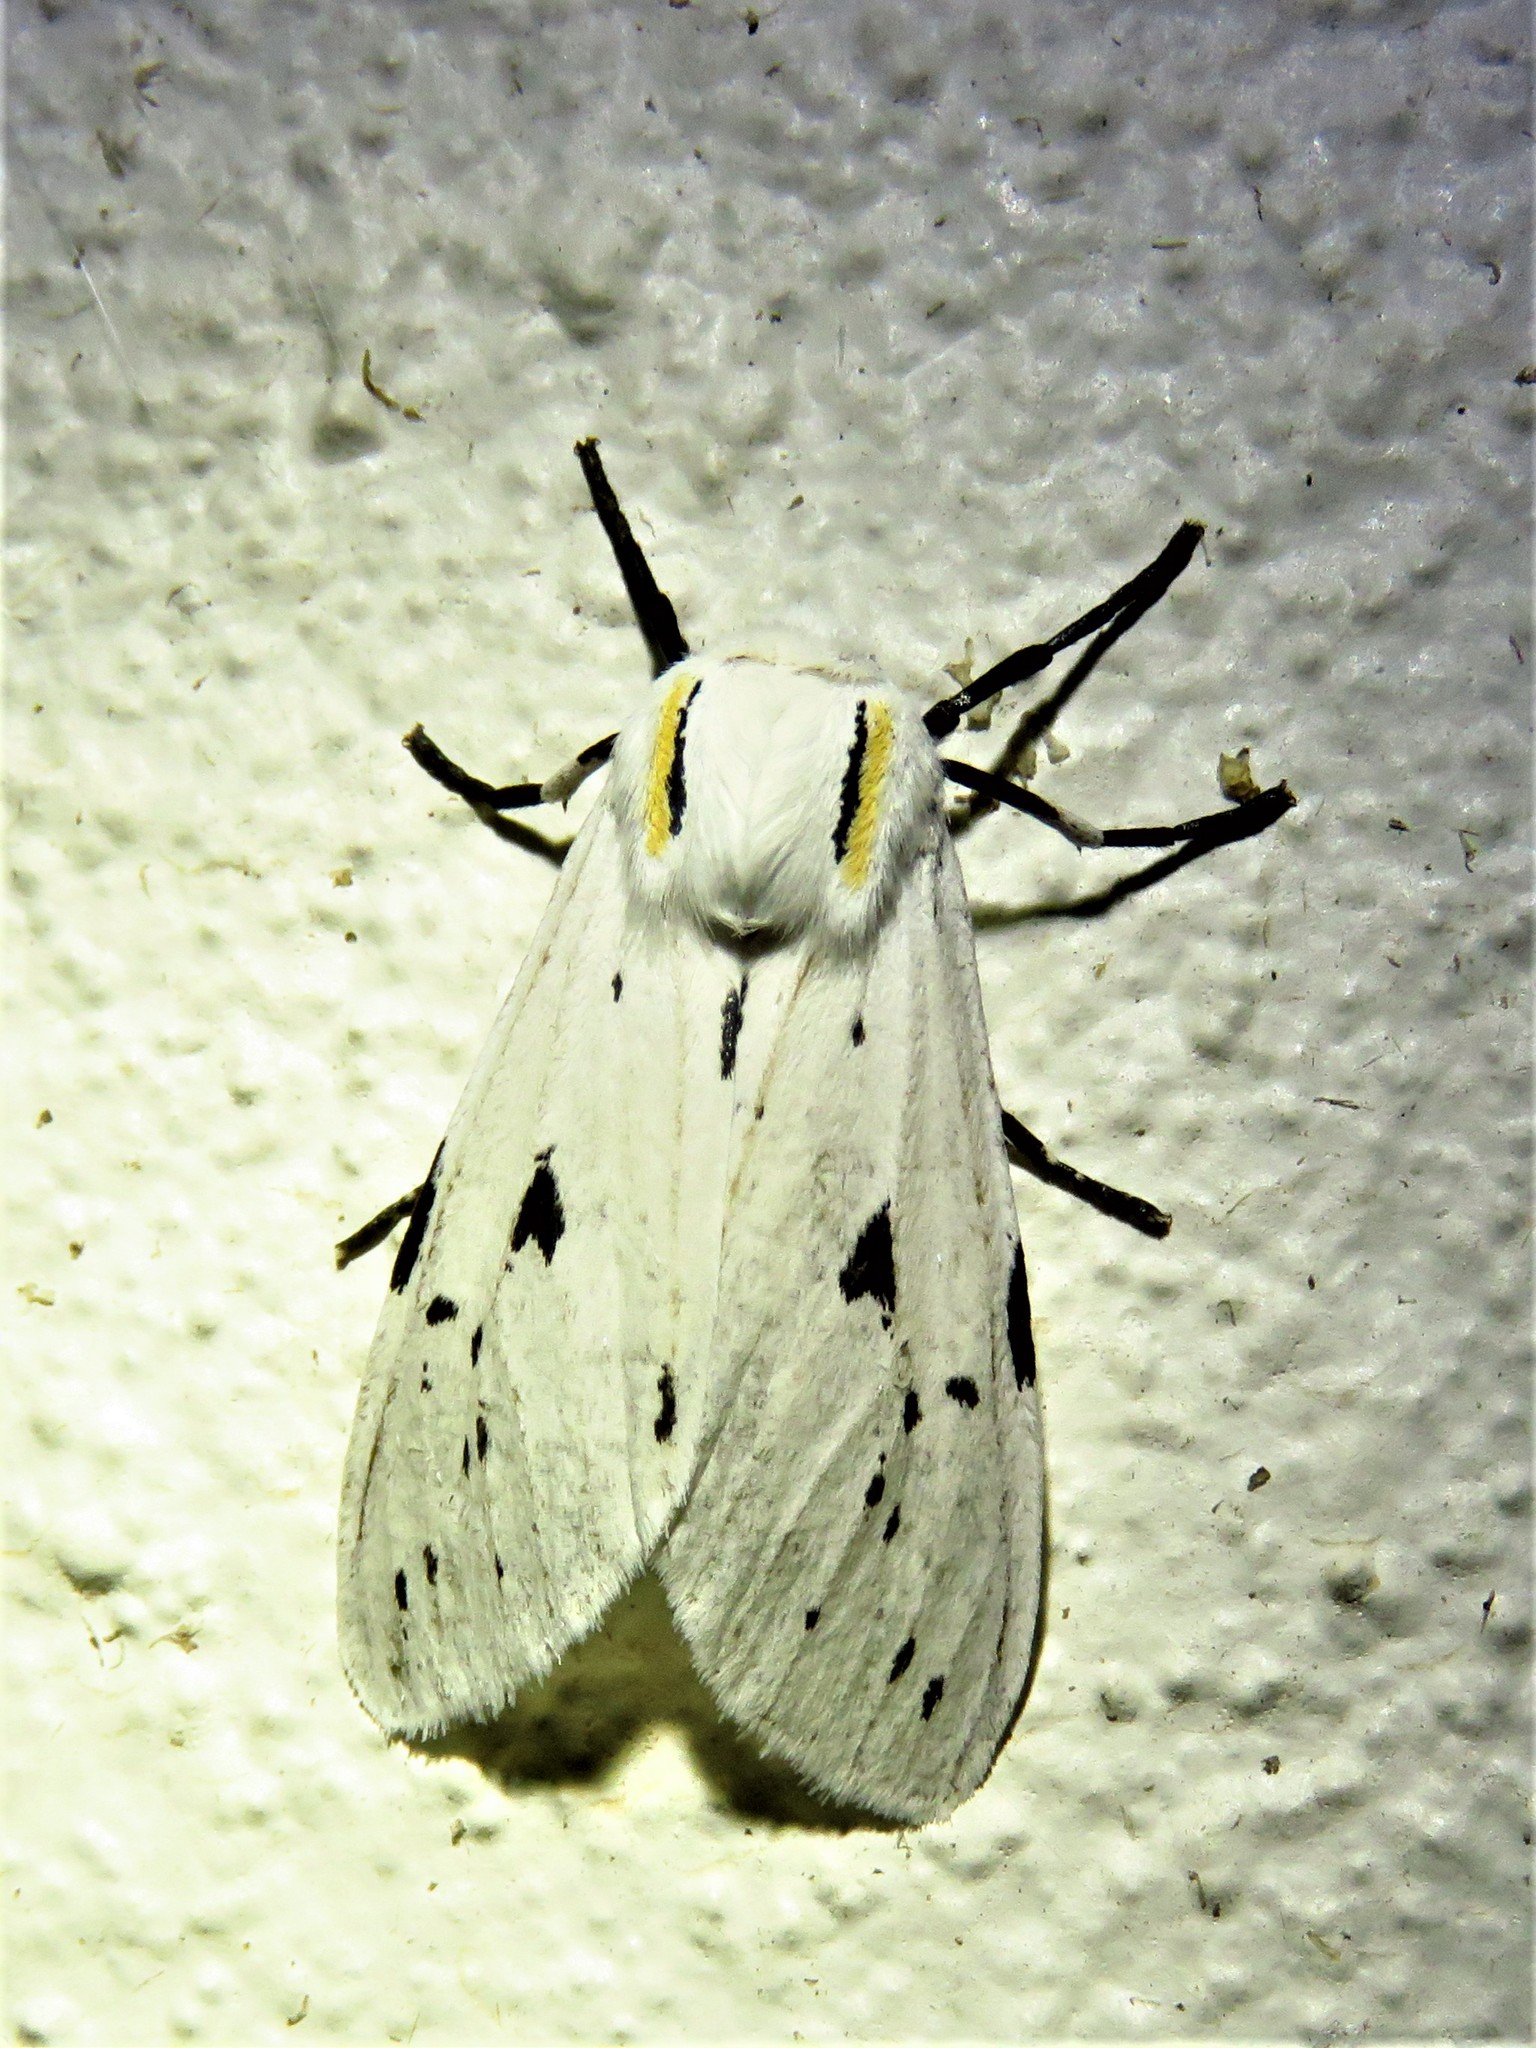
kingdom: Animalia
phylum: Arthropoda
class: Insecta
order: Lepidoptera
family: Erebidae
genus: Ectypia
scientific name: Ectypia bivittata
